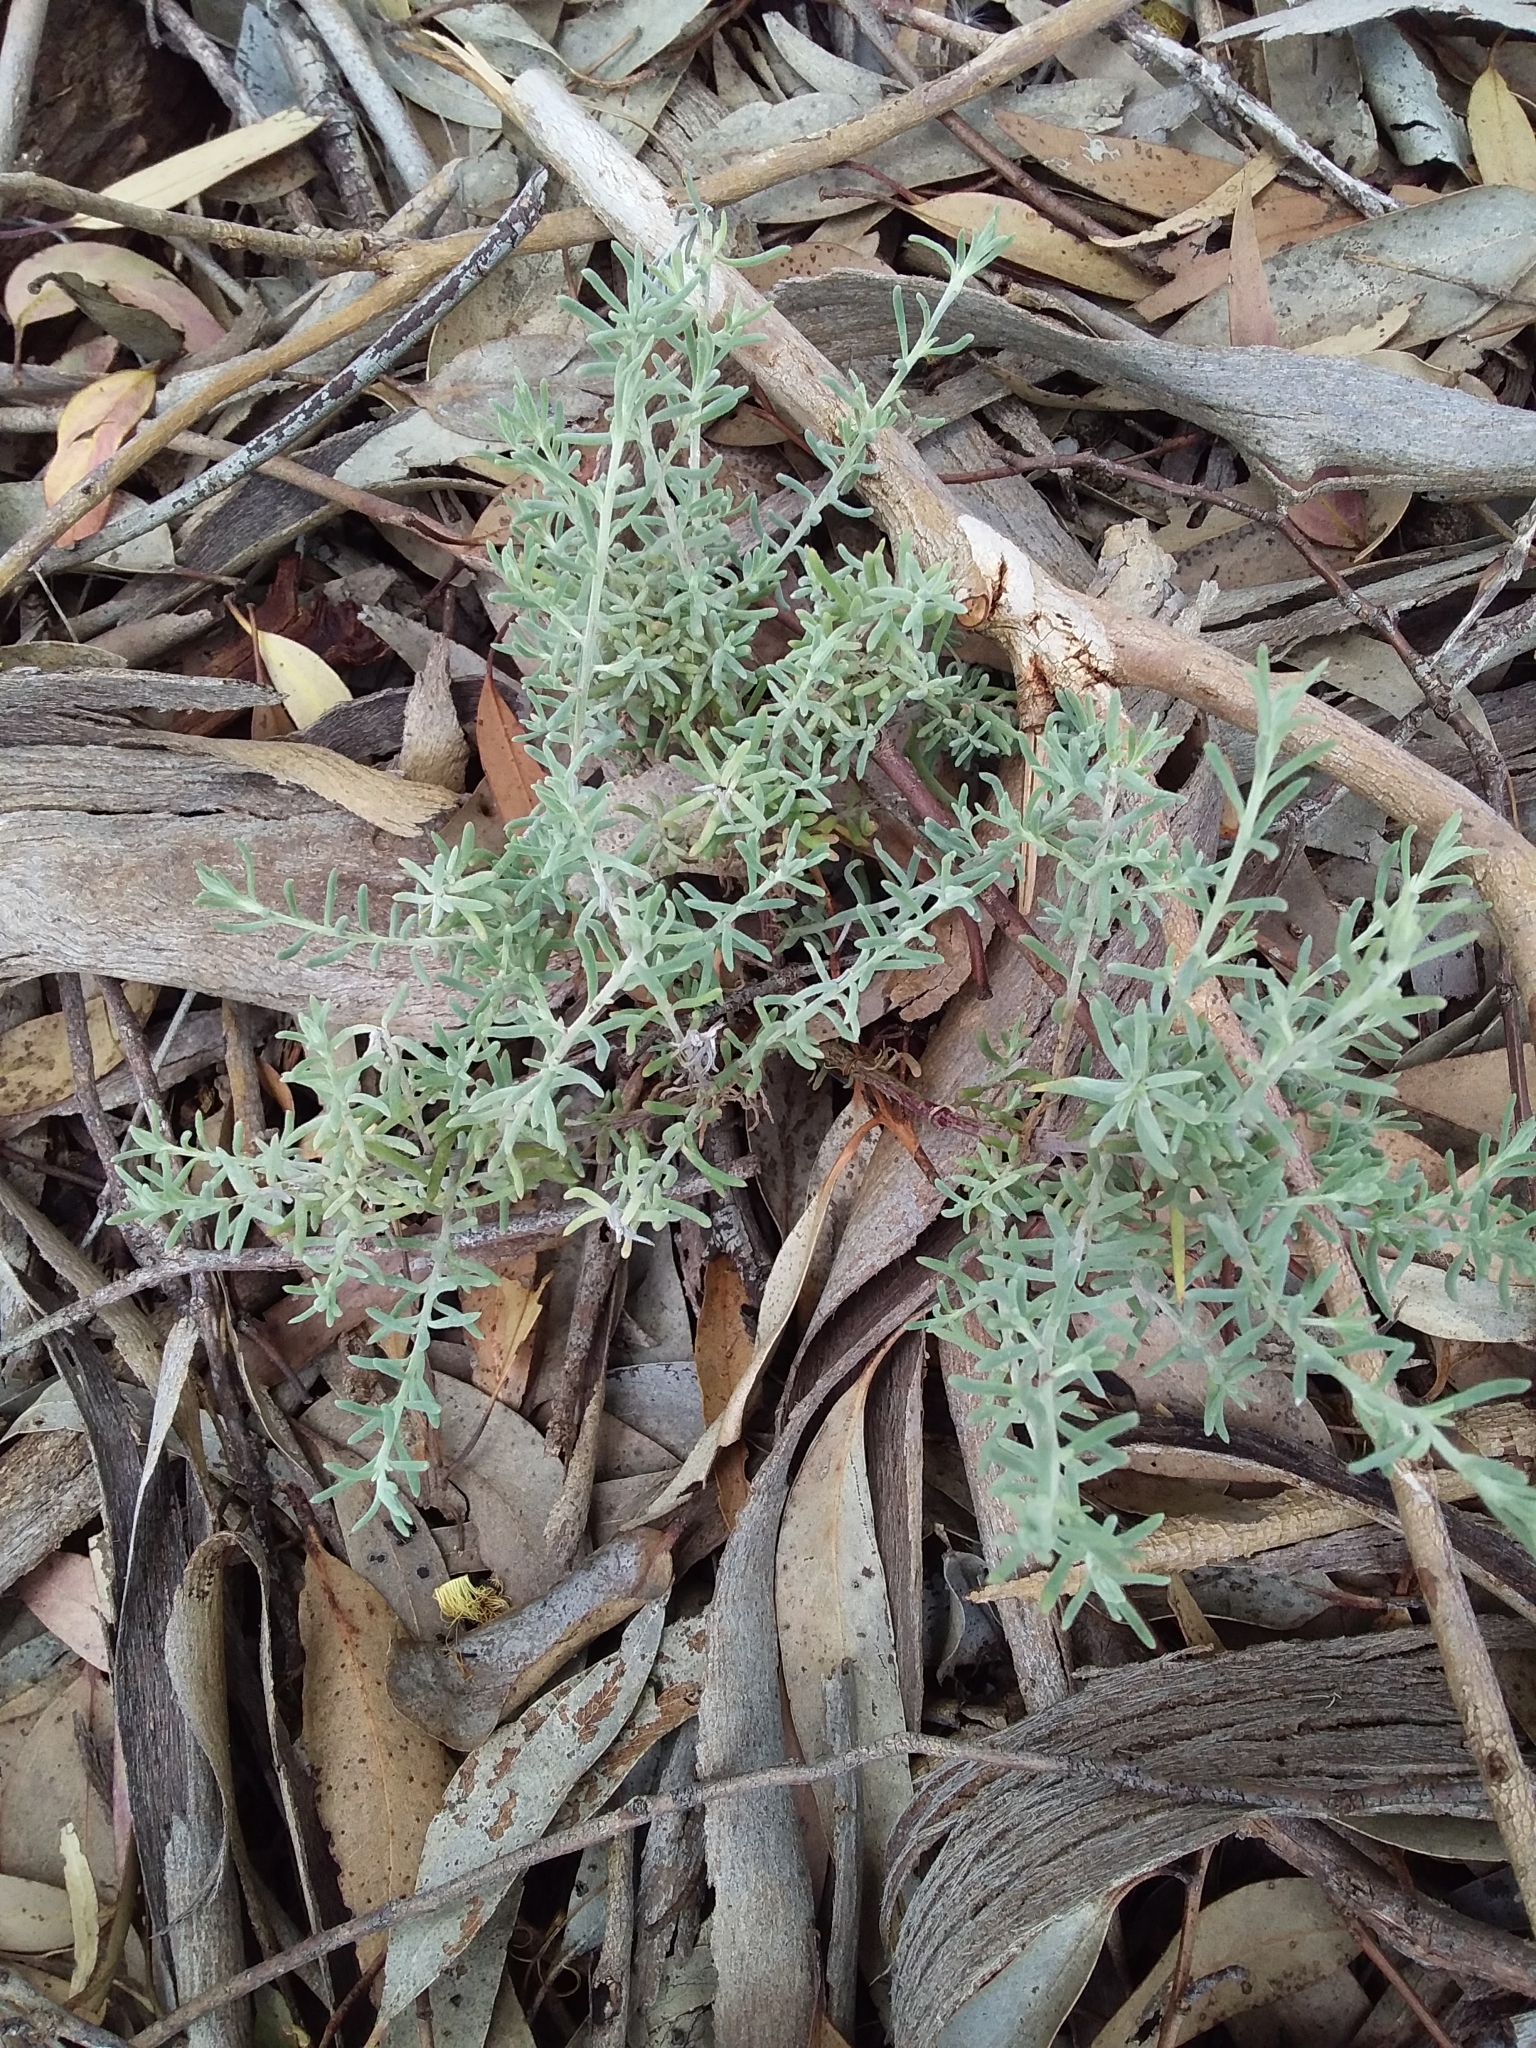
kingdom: Plantae
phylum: Tracheophyta
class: Magnoliopsida
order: Caryophyllales
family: Amaranthaceae
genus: Enchylaena
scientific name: Enchylaena tomentosa
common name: Ruby saltbush
